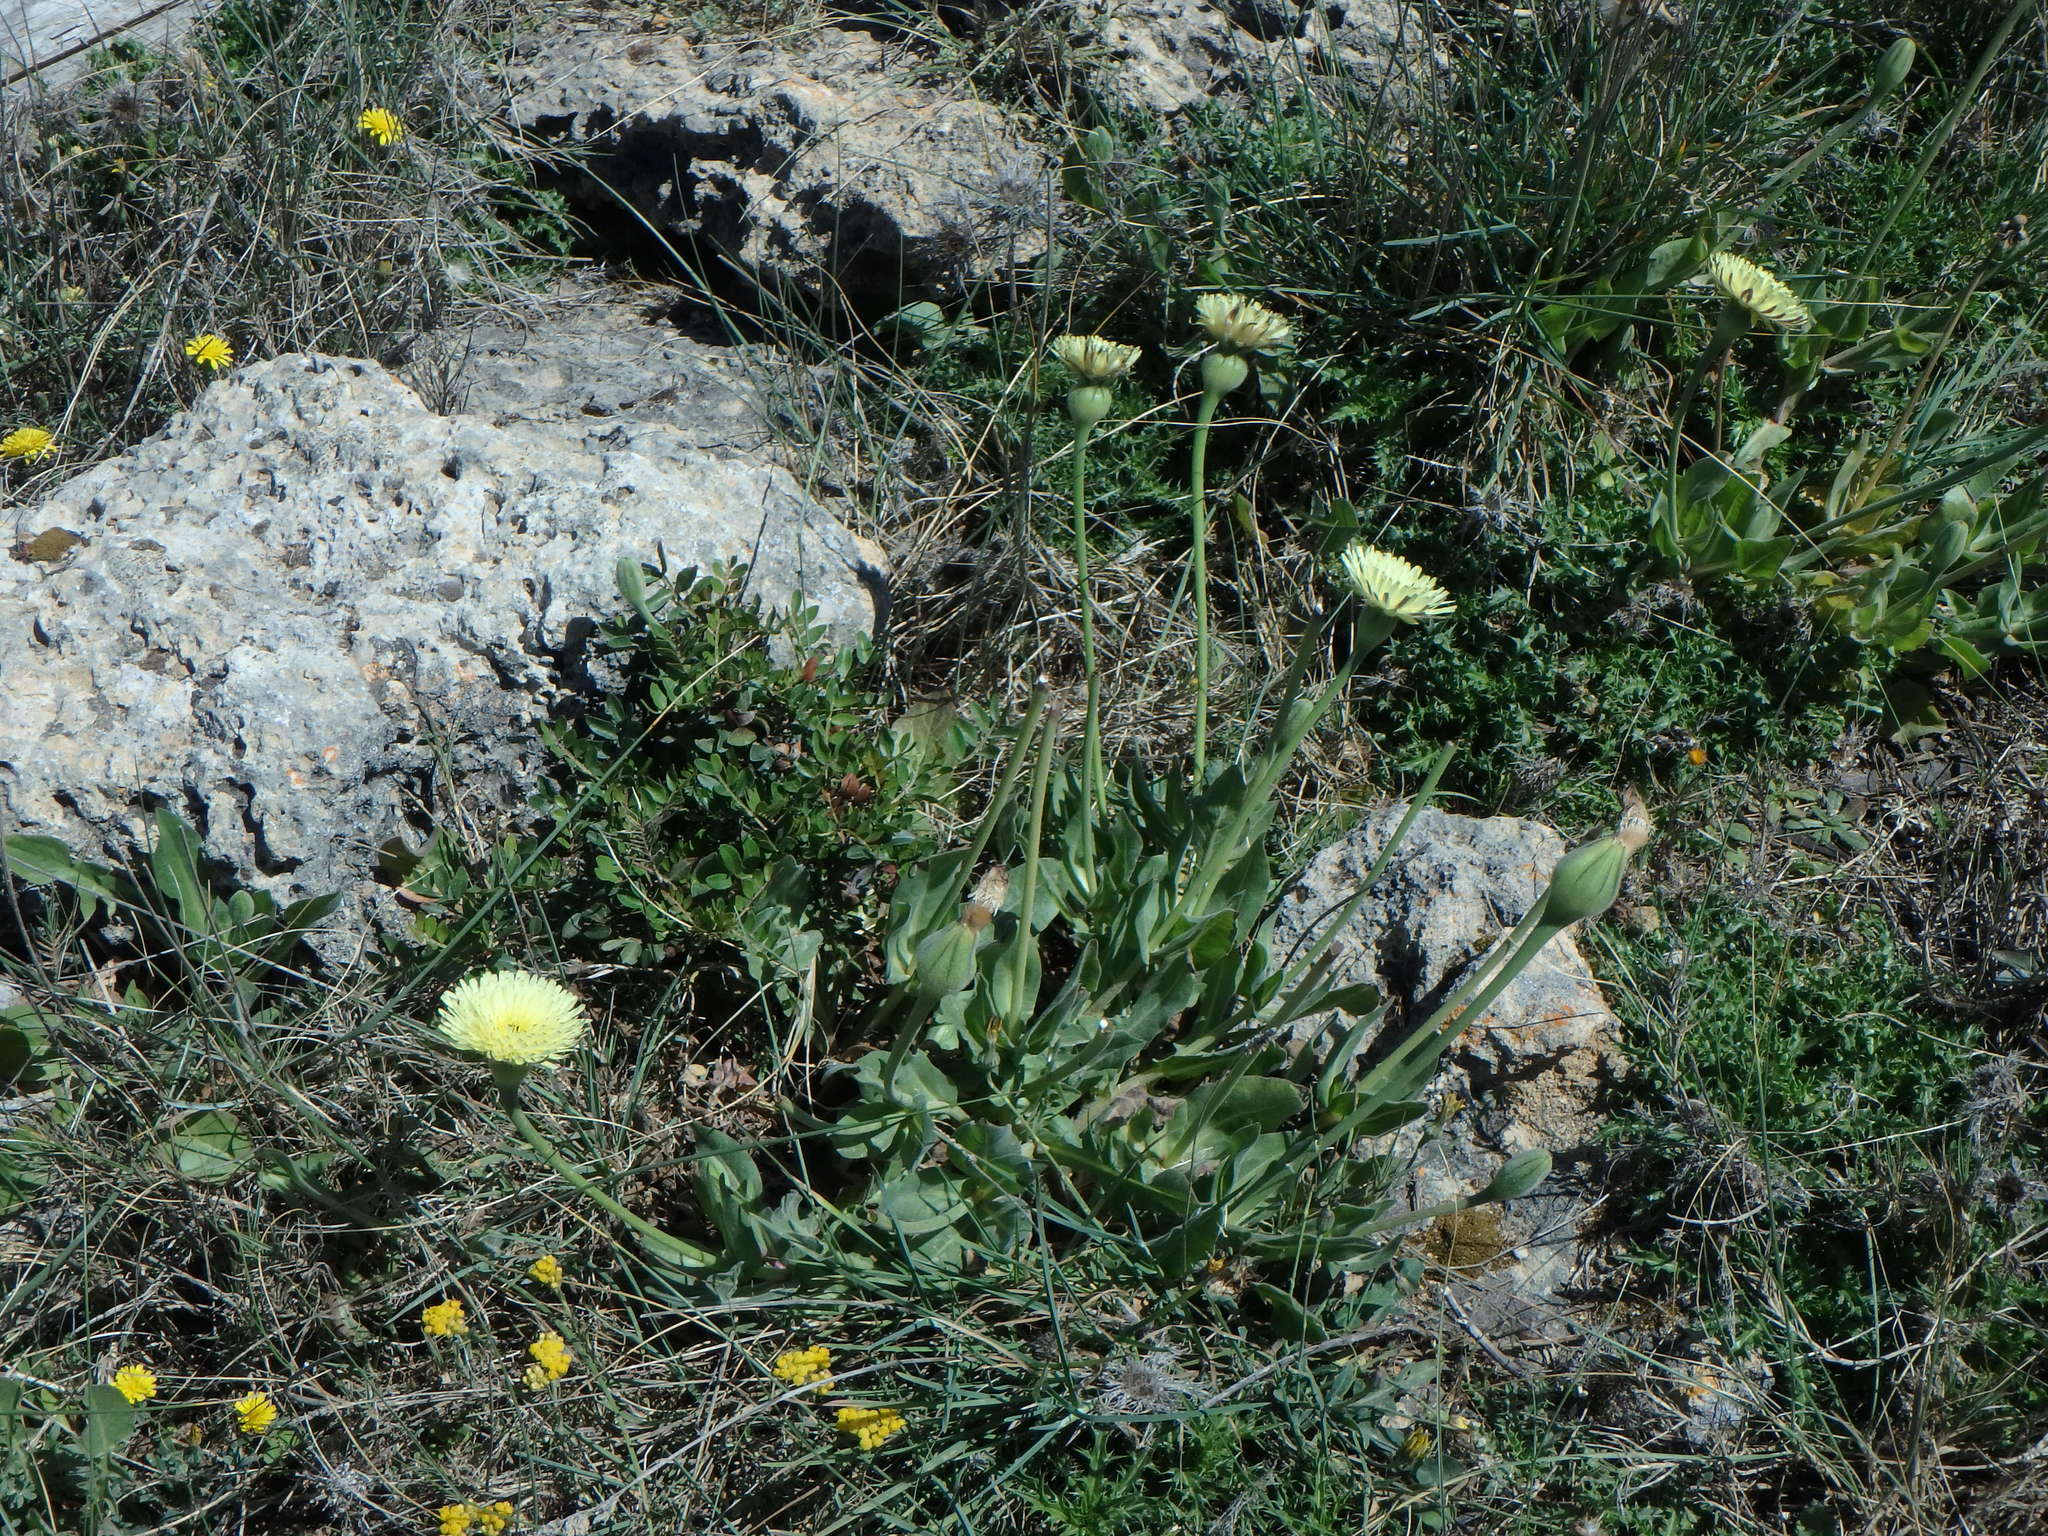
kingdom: Plantae
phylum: Tracheophyta
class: Magnoliopsida
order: Asterales
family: Asteraceae
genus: Urospermum
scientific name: Urospermum dalechampii
